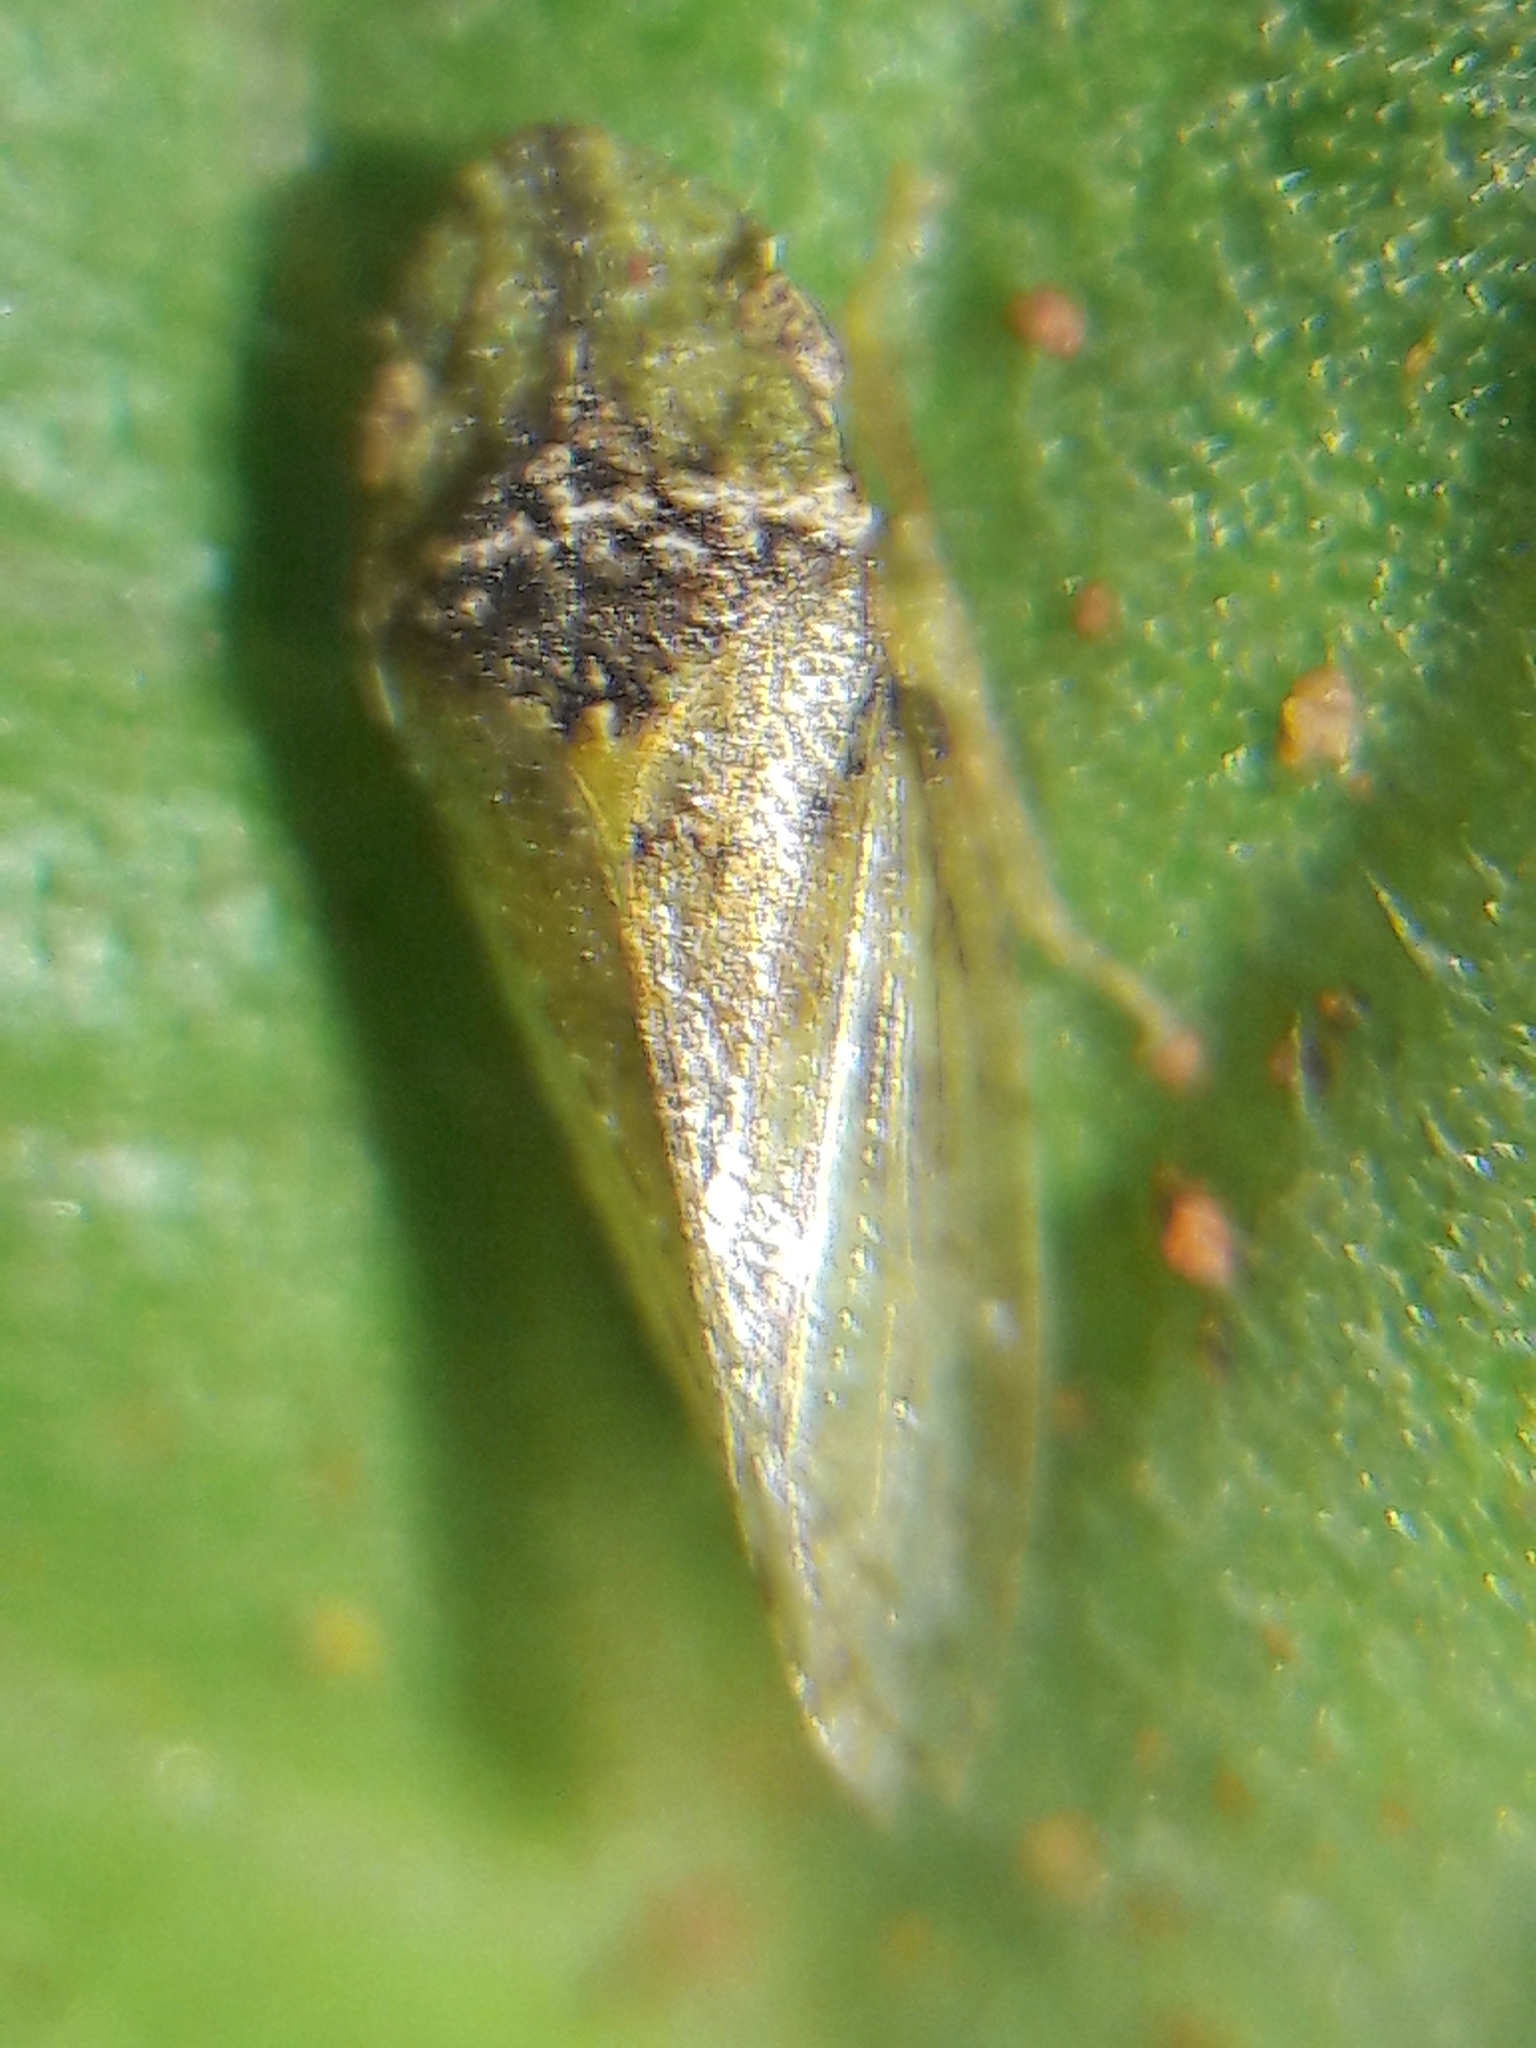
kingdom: Animalia
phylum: Arthropoda
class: Insecta
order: Hemiptera
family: Cicadellidae
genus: Xerophloea
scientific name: Xerophloea viridis
